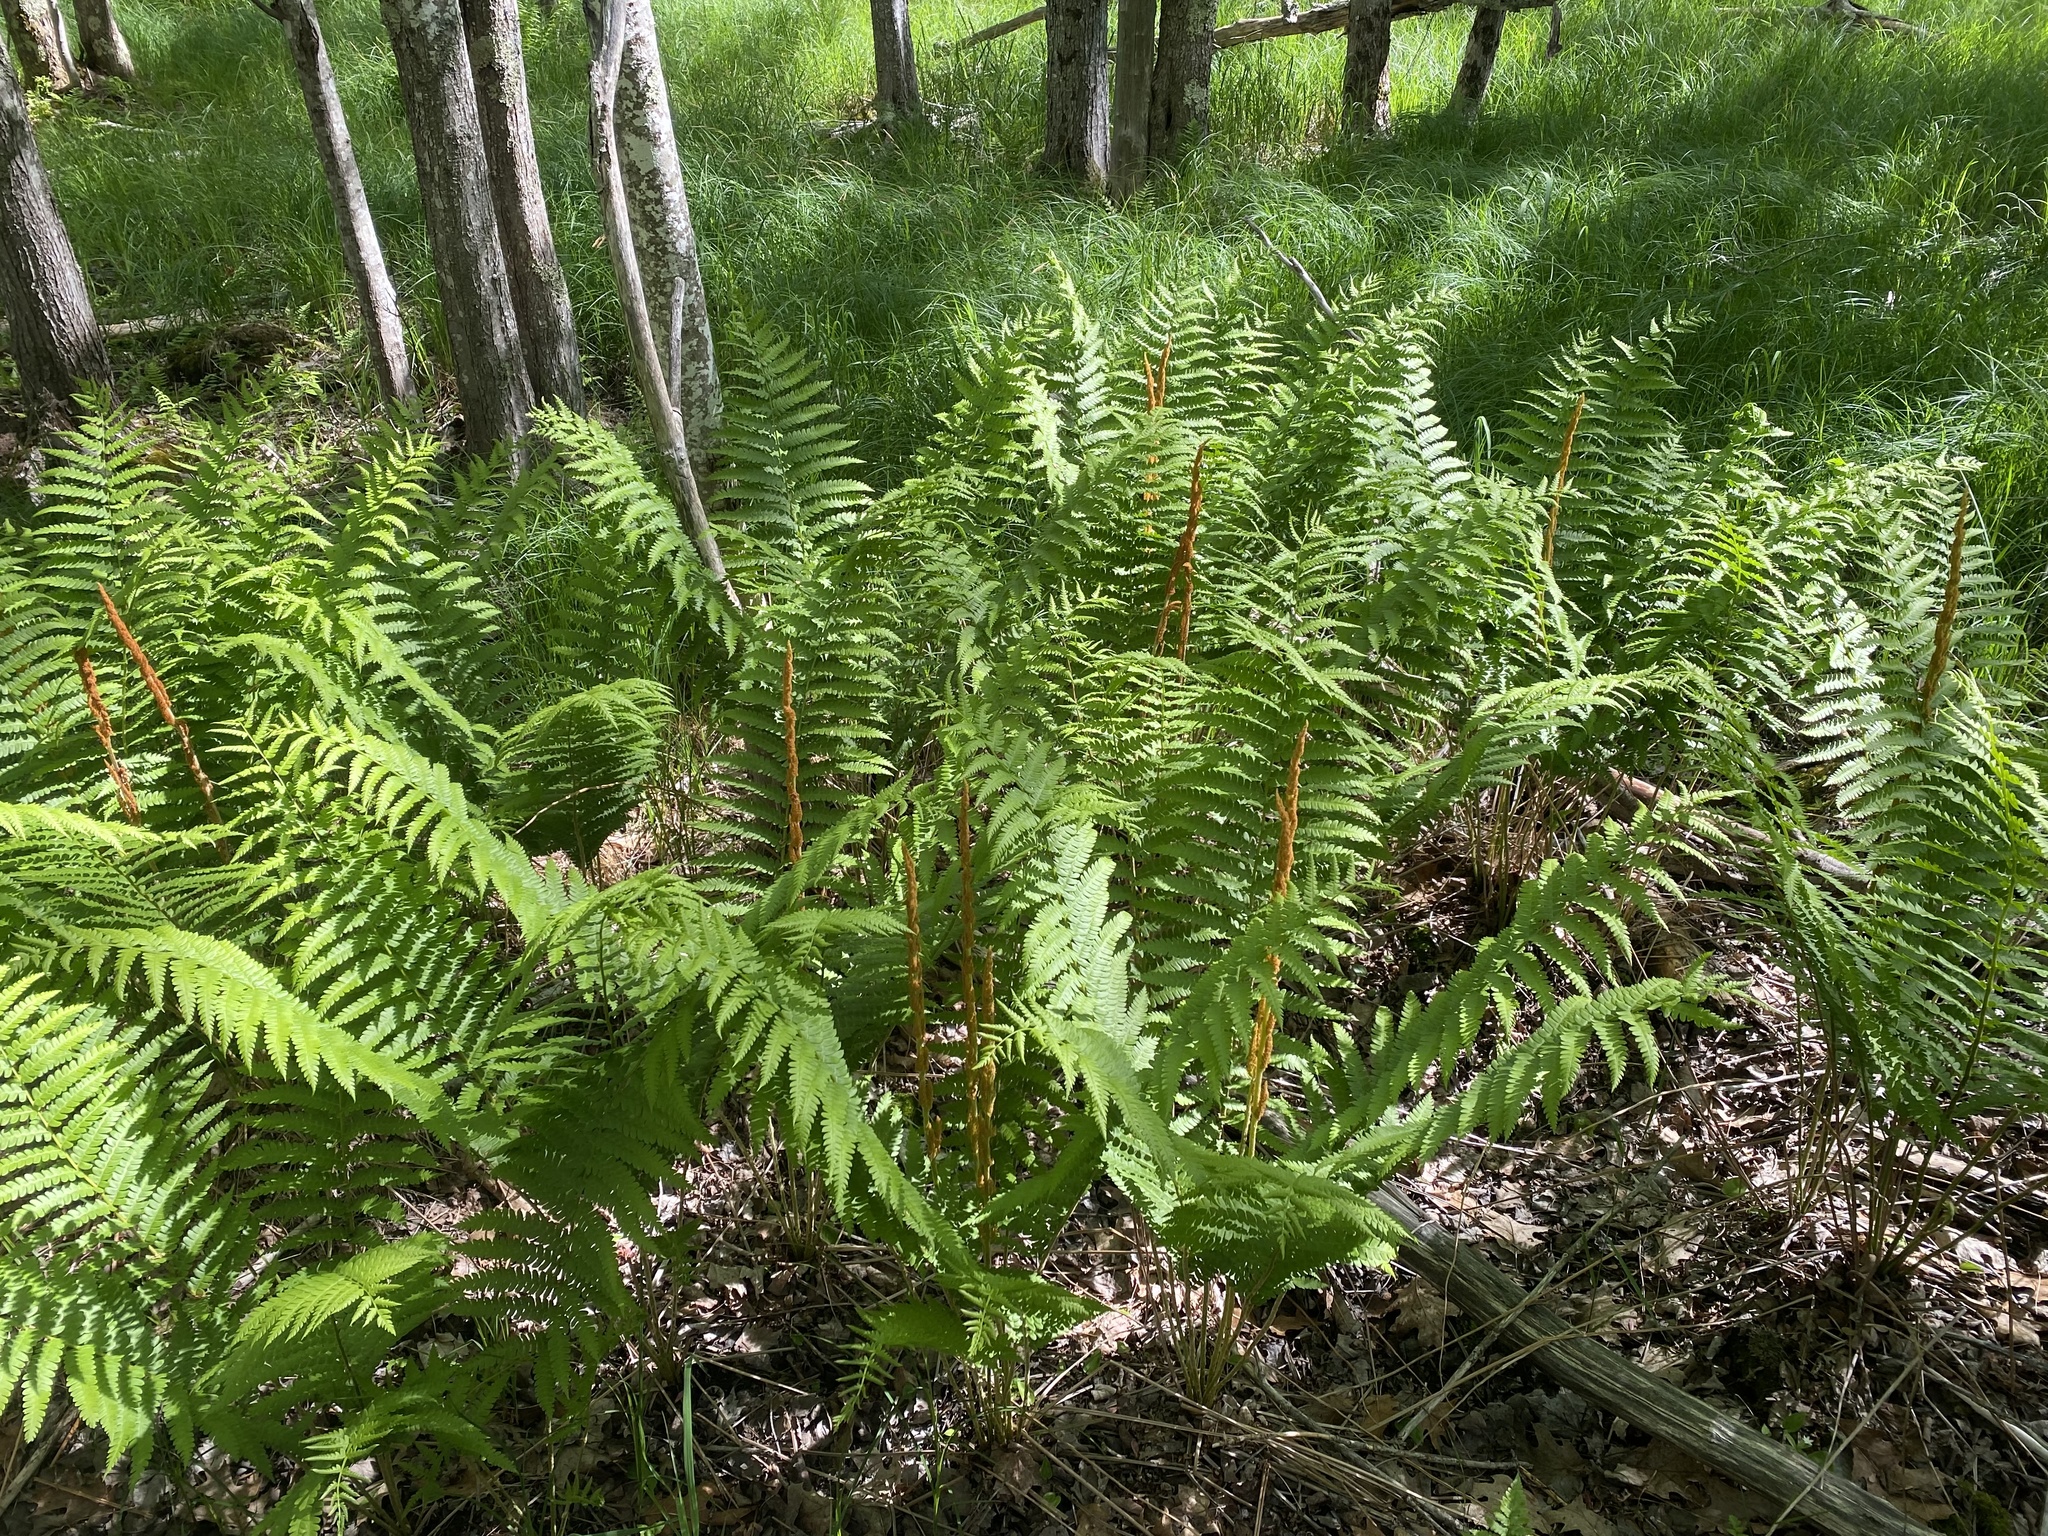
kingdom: Plantae
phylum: Tracheophyta
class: Polypodiopsida
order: Osmundales
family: Osmundaceae
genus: Osmundastrum
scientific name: Osmundastrum cinnamomeum
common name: Cinnamon fern
